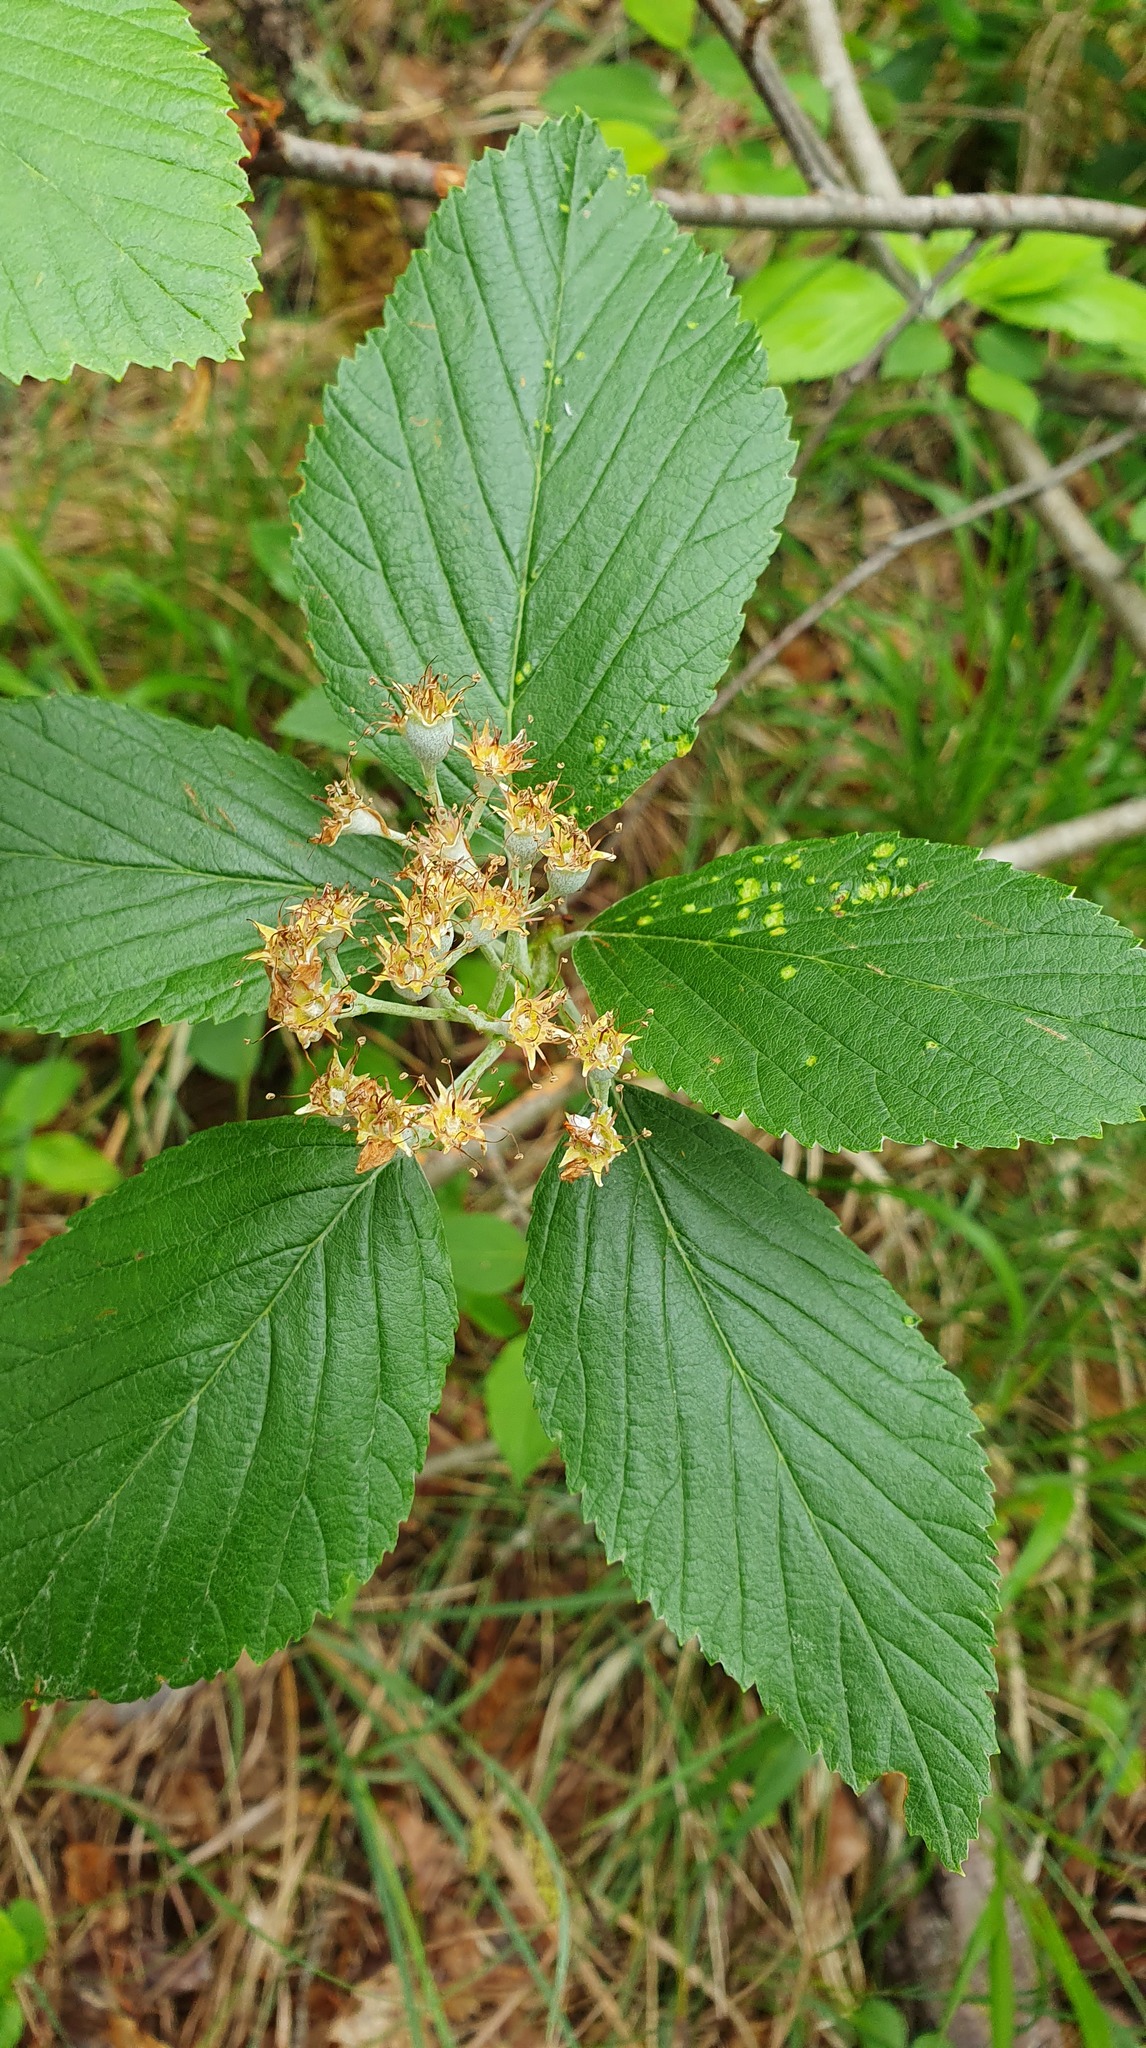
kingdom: Plantae
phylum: Tracheophyta
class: Magnoliopsida
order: Rosales
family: Rosaceae
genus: Aria
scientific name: Aria edulis
